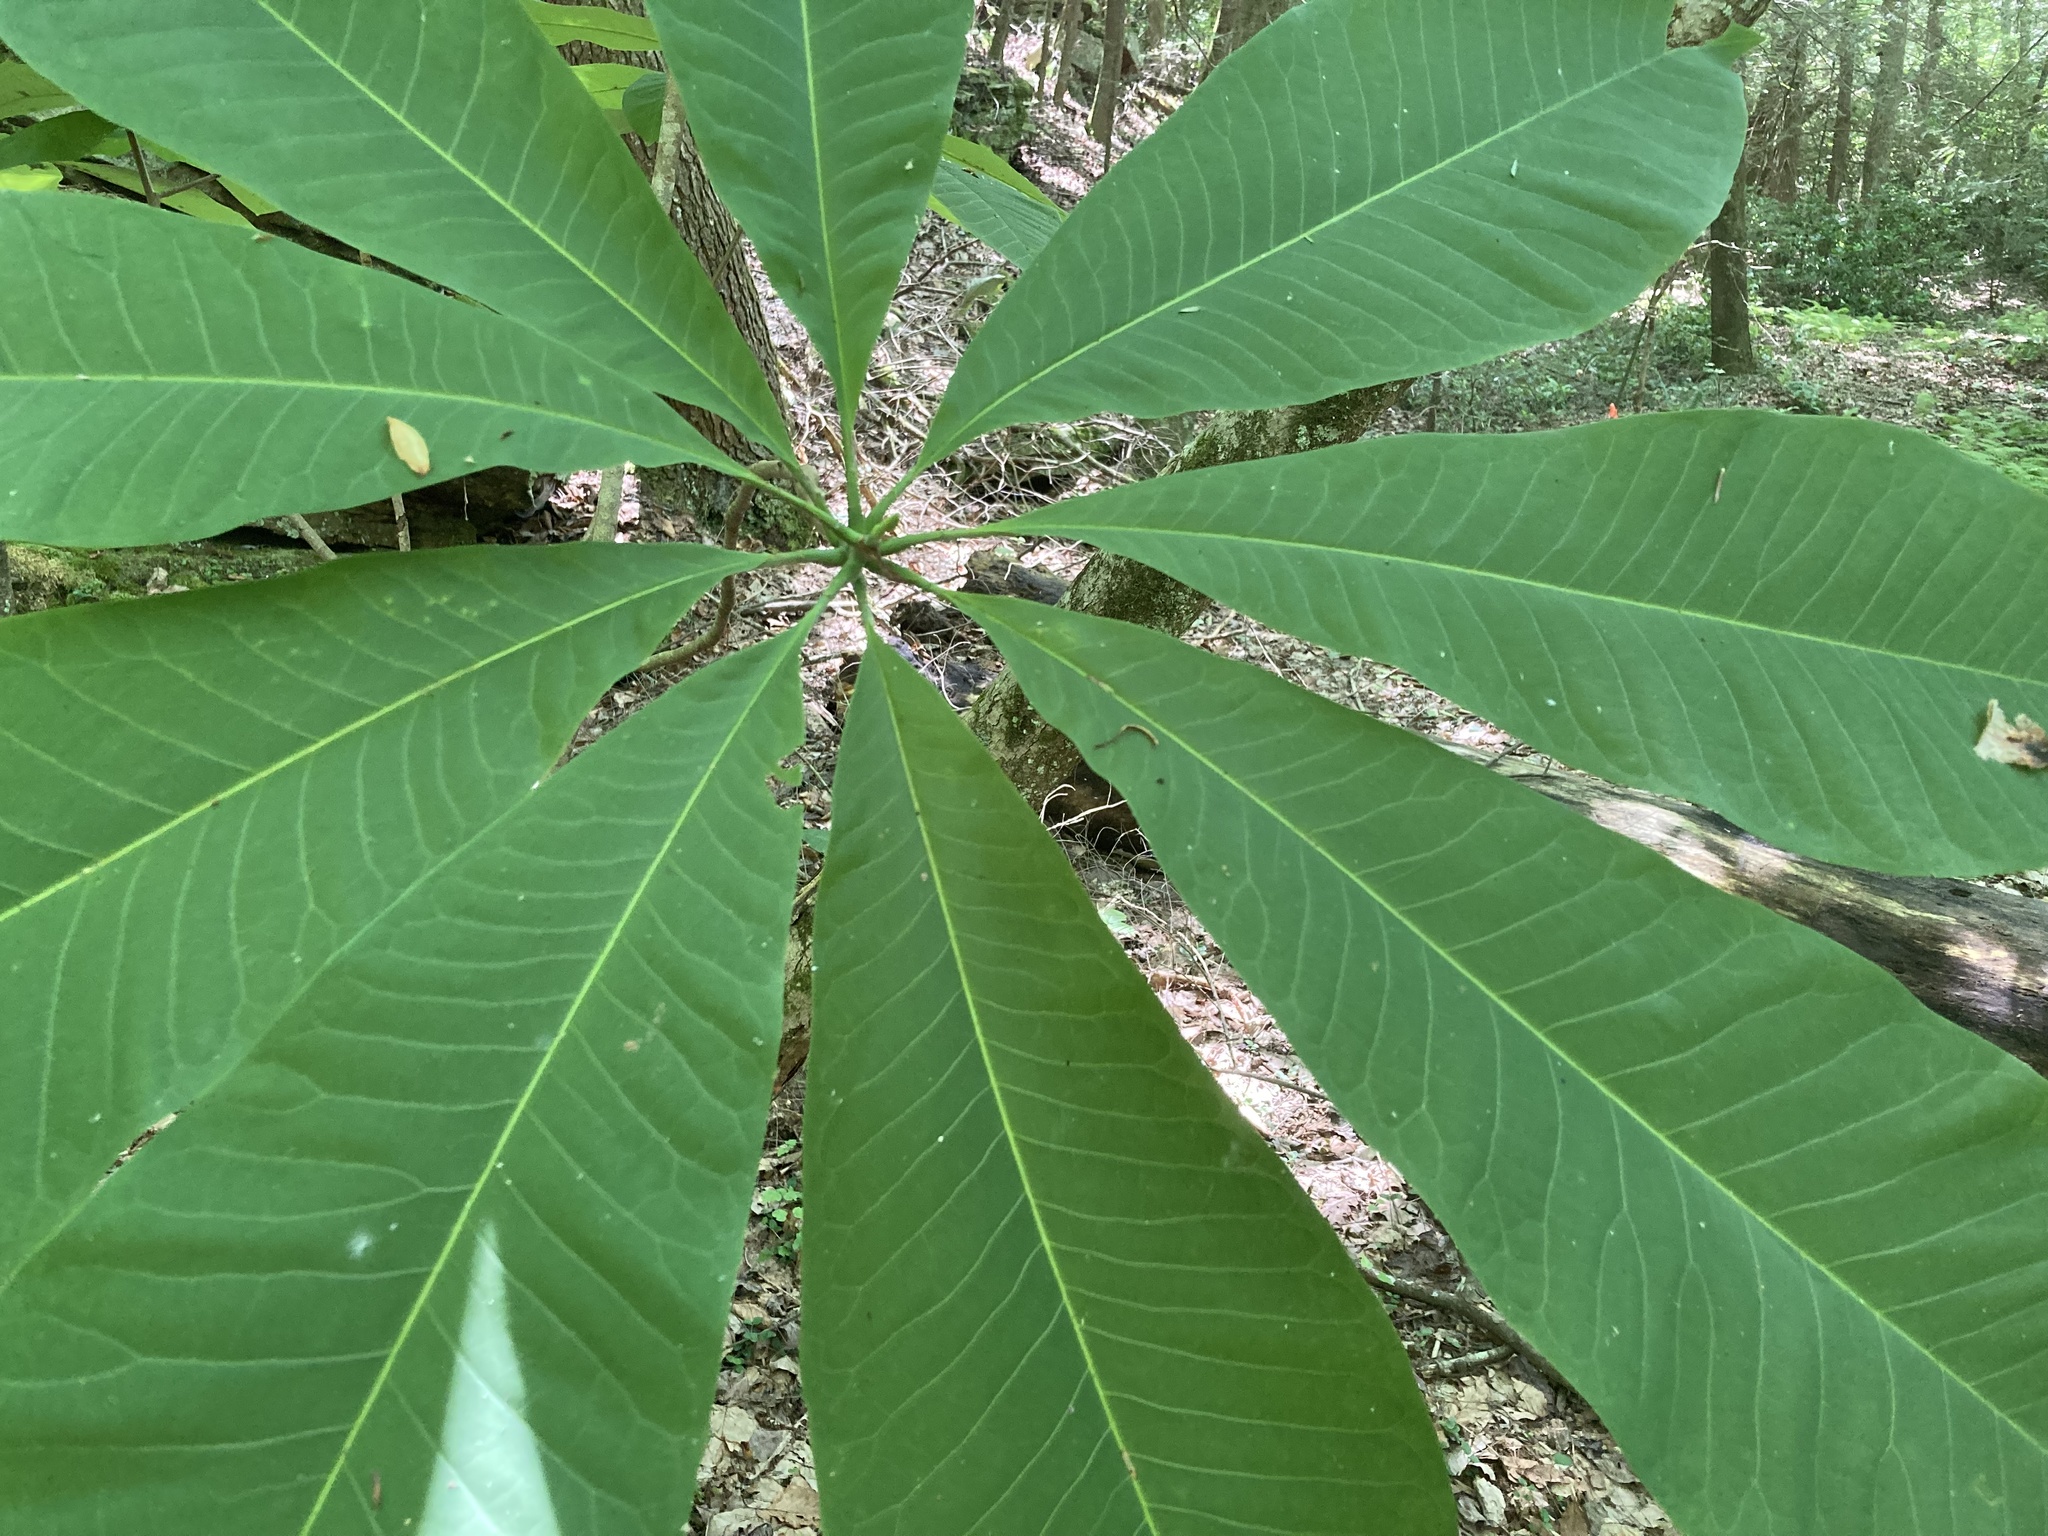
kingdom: Plantae
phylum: Tracheophyta
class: Magnoliopsida
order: Magnoliales
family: Magnoliaceae
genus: Magnolia
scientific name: Magnolia tripetala
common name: Umbrella magnolia
